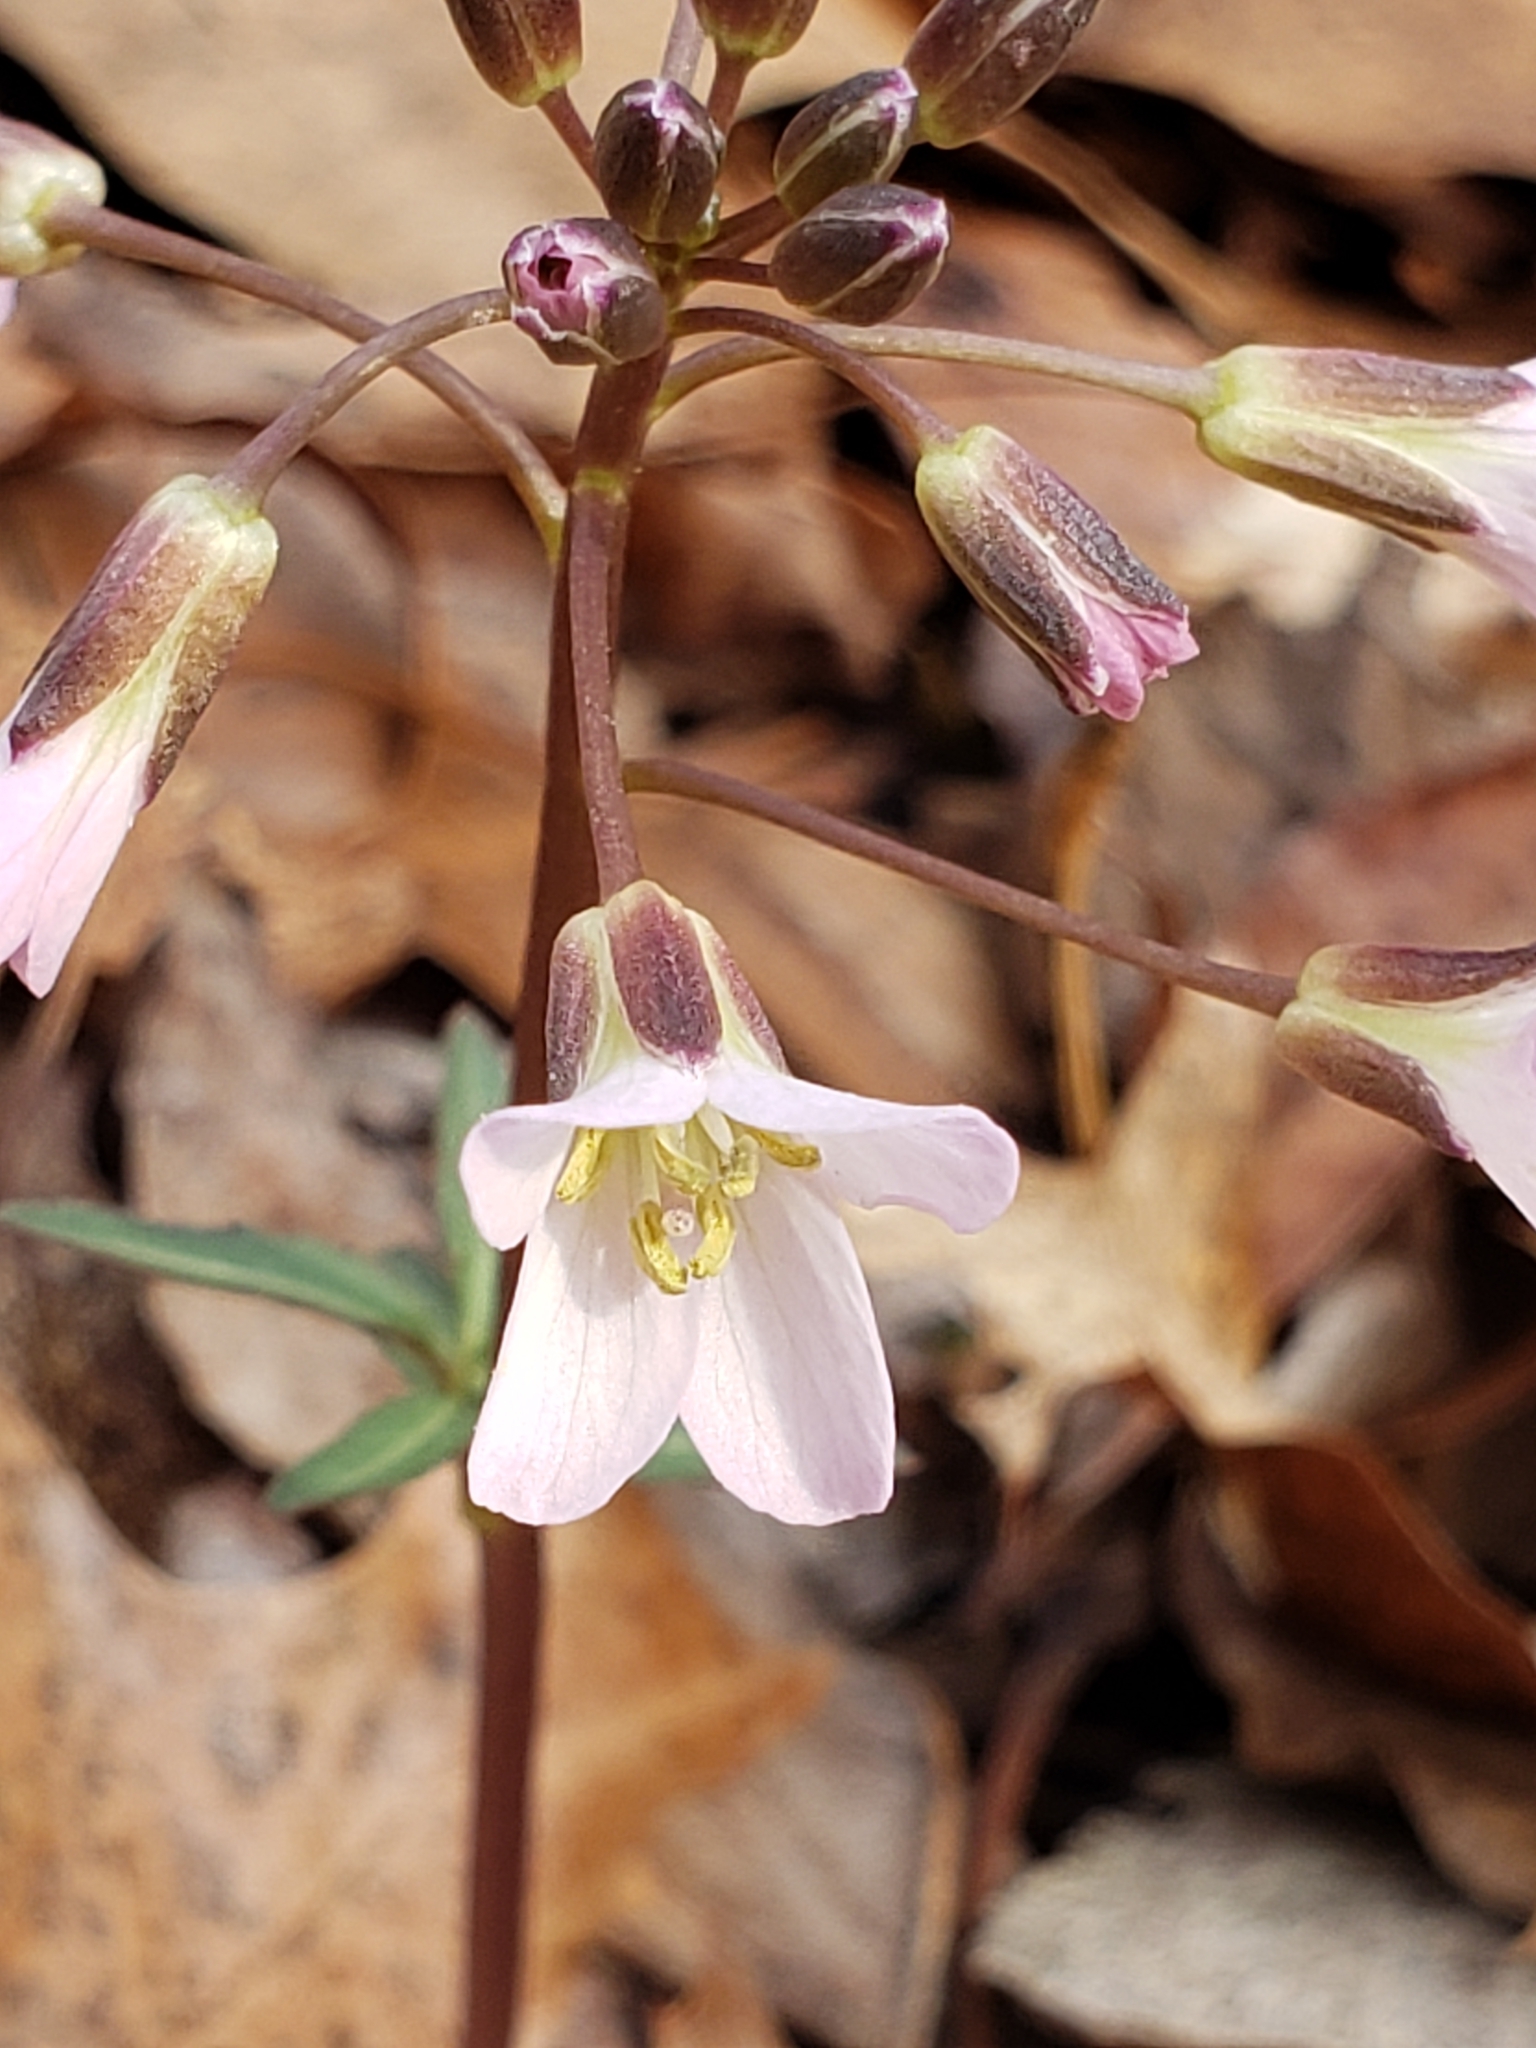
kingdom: Plantae
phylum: Tracheophyta
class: Magnoliopsida
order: Brassicales
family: Brassicaceae
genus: Cardamine
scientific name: Cardamine concatenata
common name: Cut-leaf toothcup
